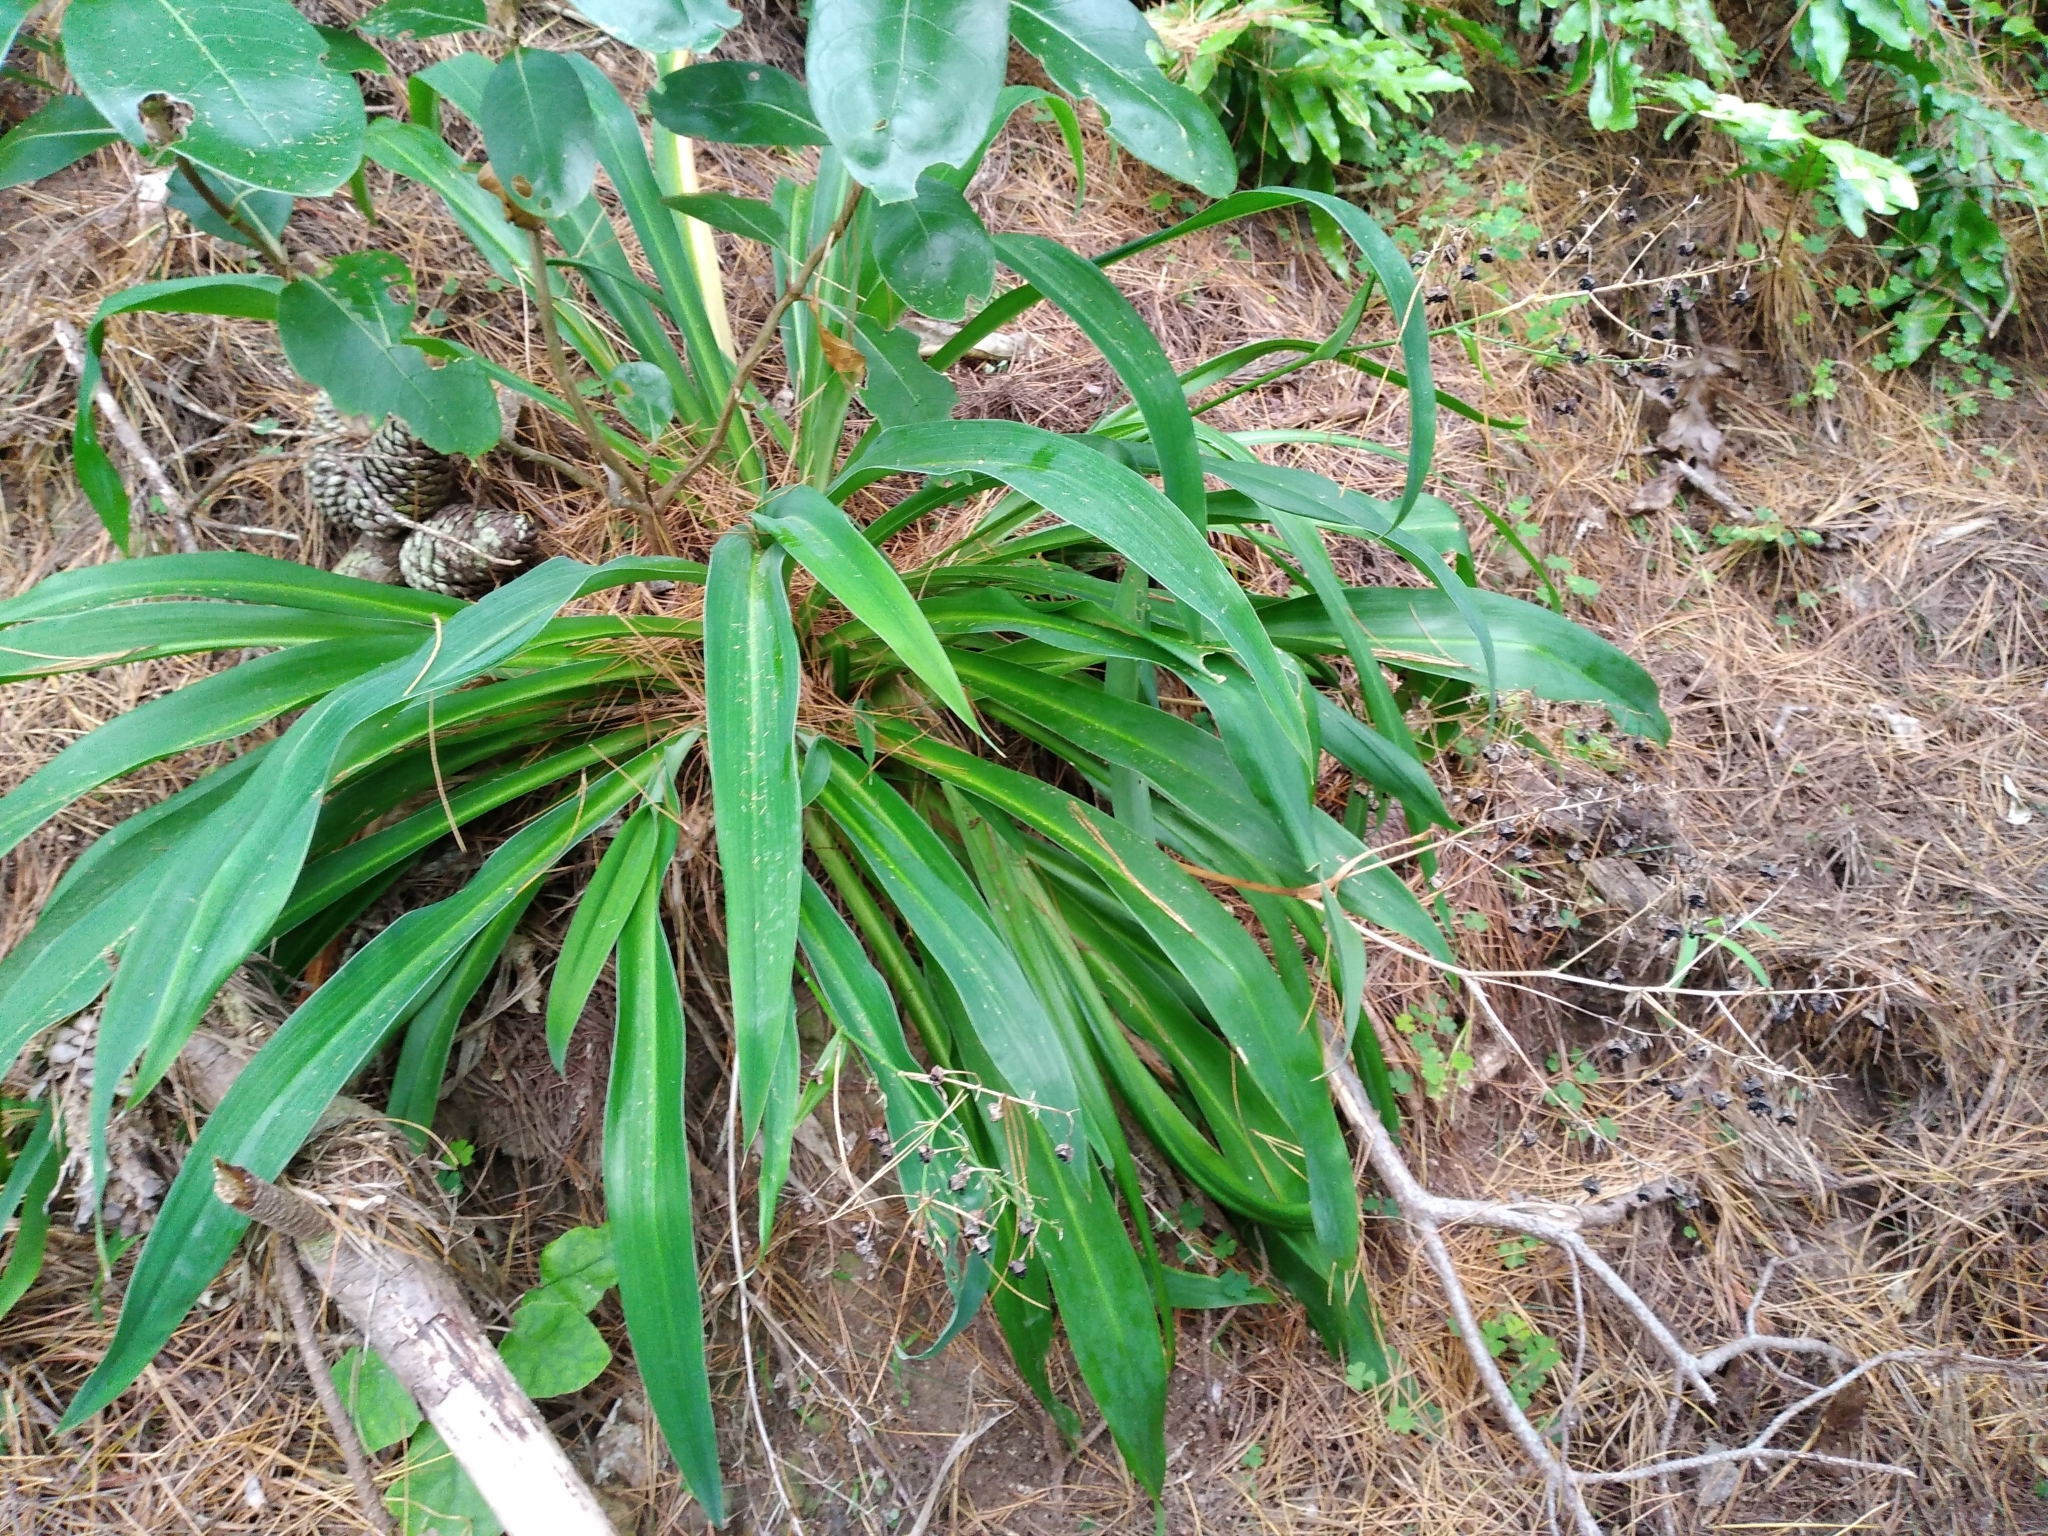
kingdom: Plantae
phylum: Tracheophyta
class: Liliopsida
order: Asparagales
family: Asparagaceae
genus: Arthropodium
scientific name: Arthropodium cirratum
